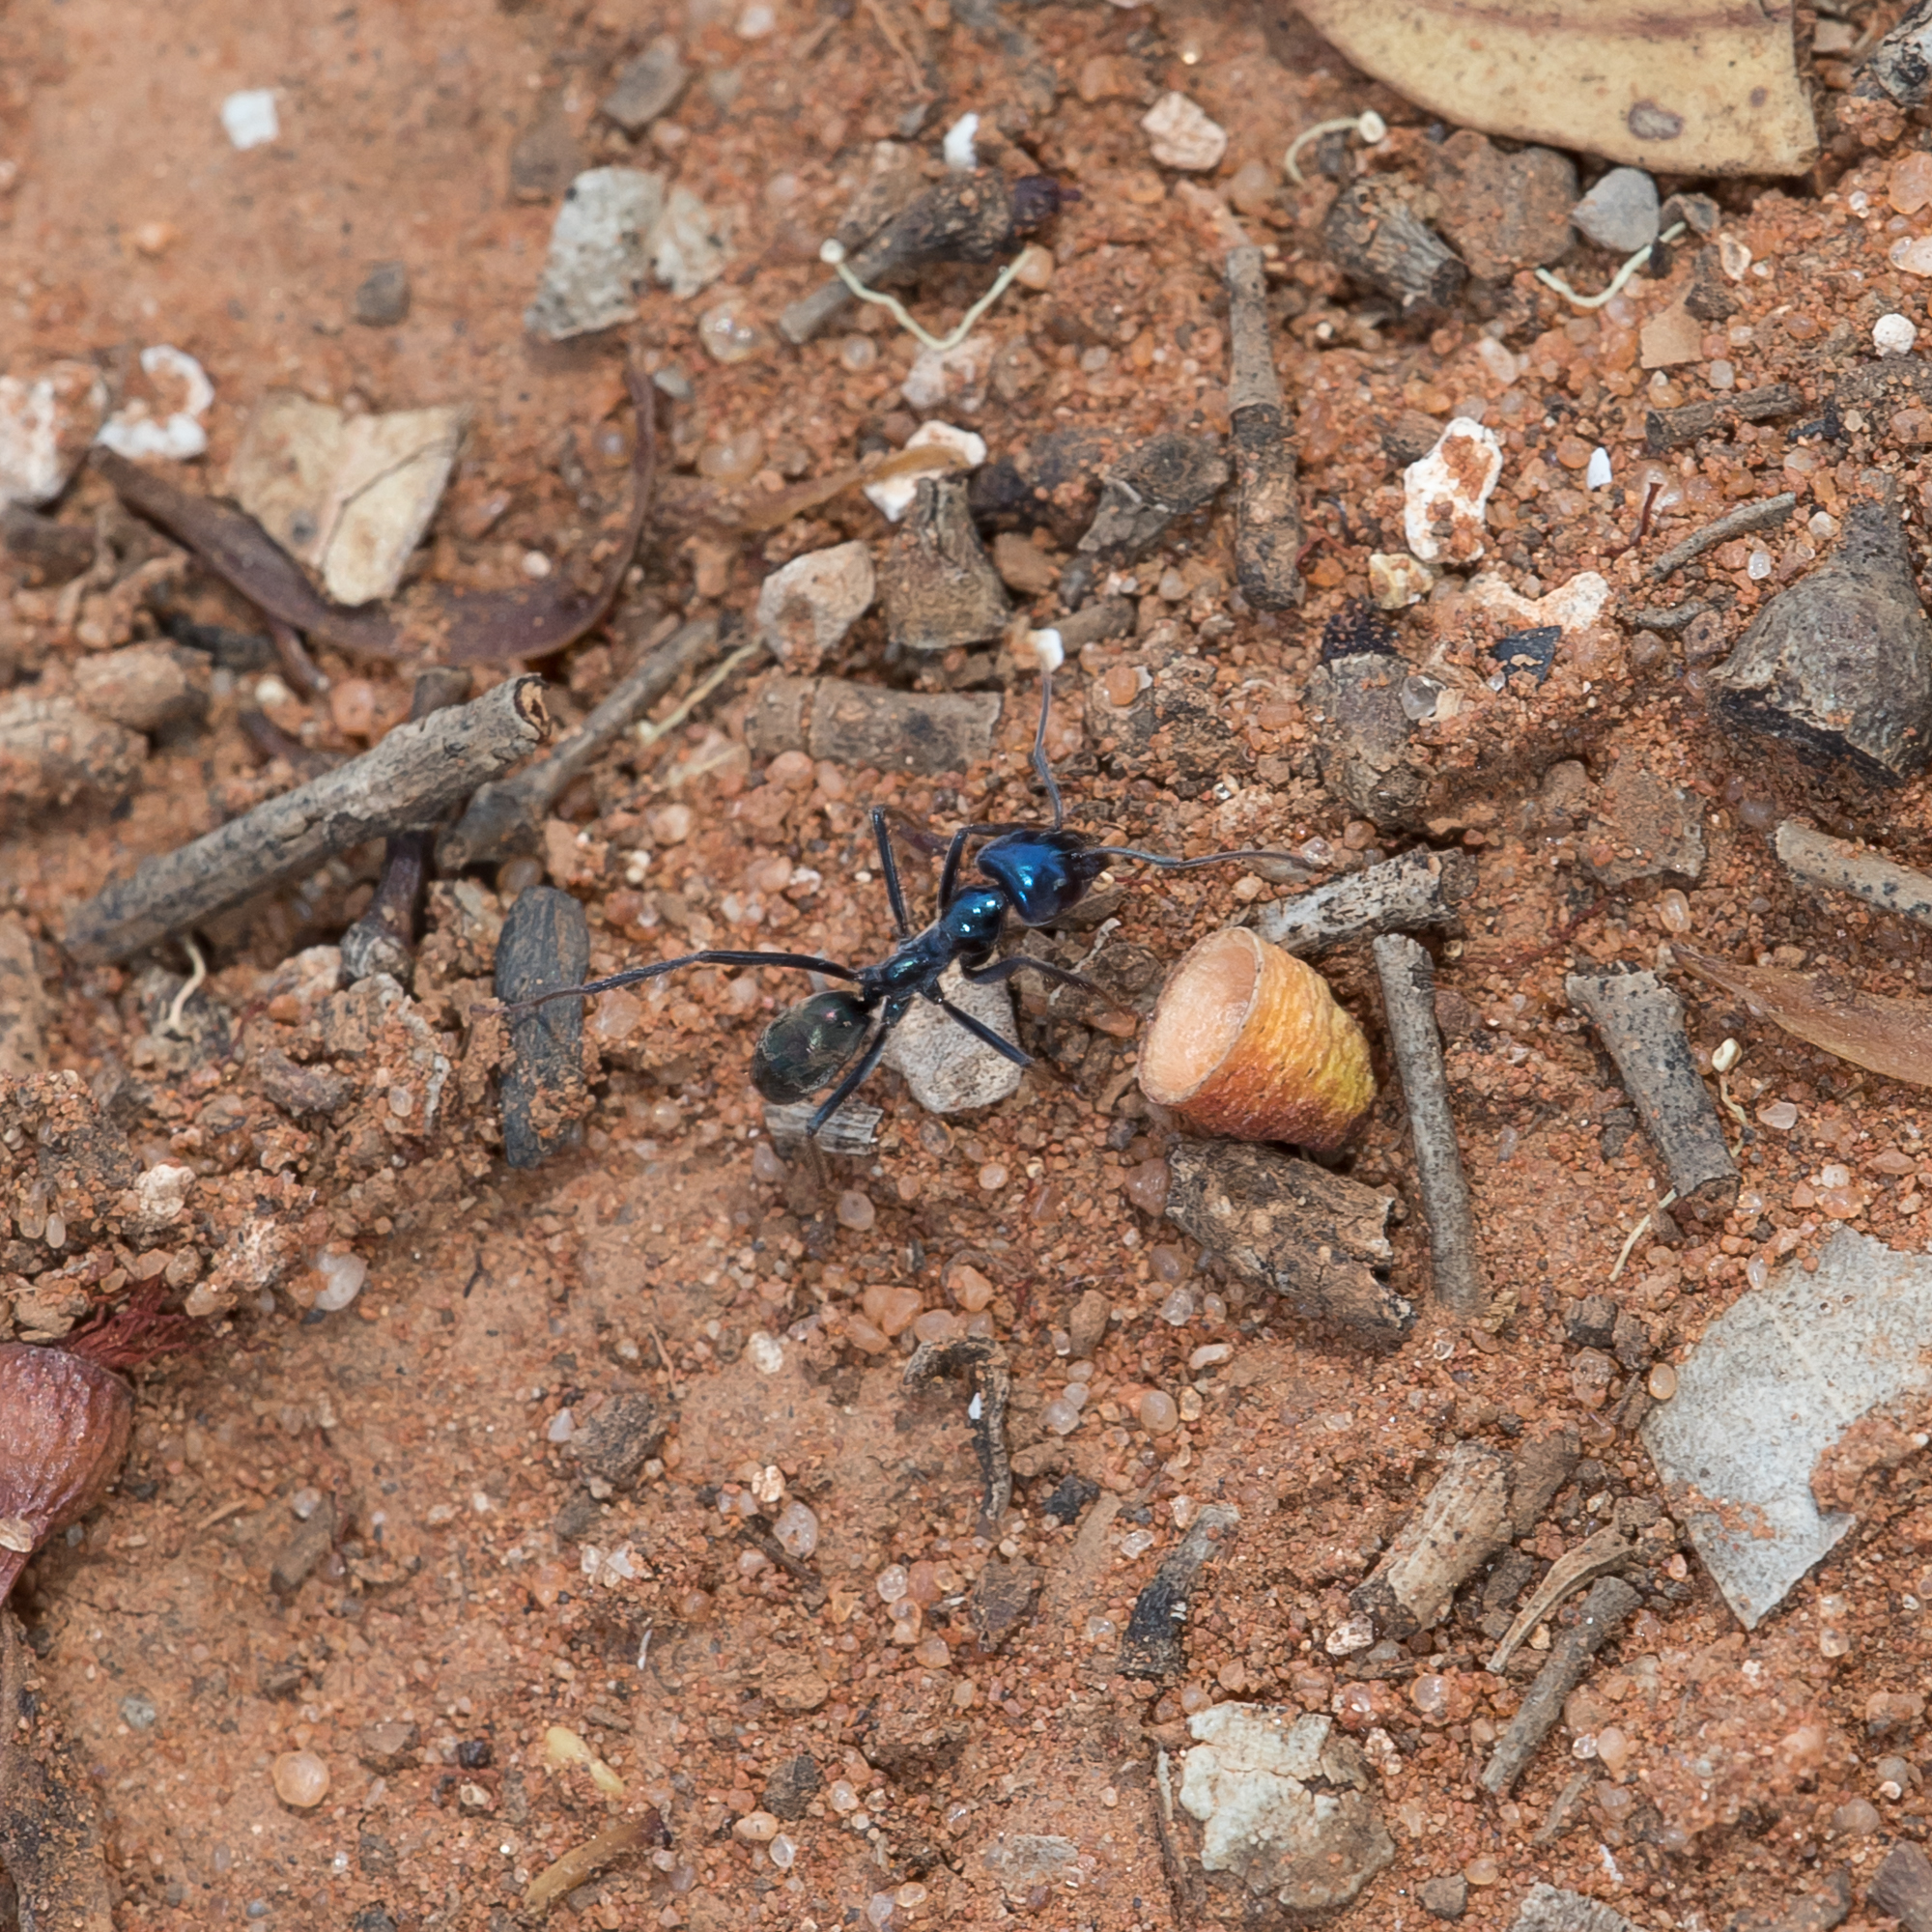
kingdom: Animalia
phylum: Arthropoda
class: Insecta
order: Hymenoptera
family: Formicidae
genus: Iridomyrmex
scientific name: Iridomyrmex lividus
